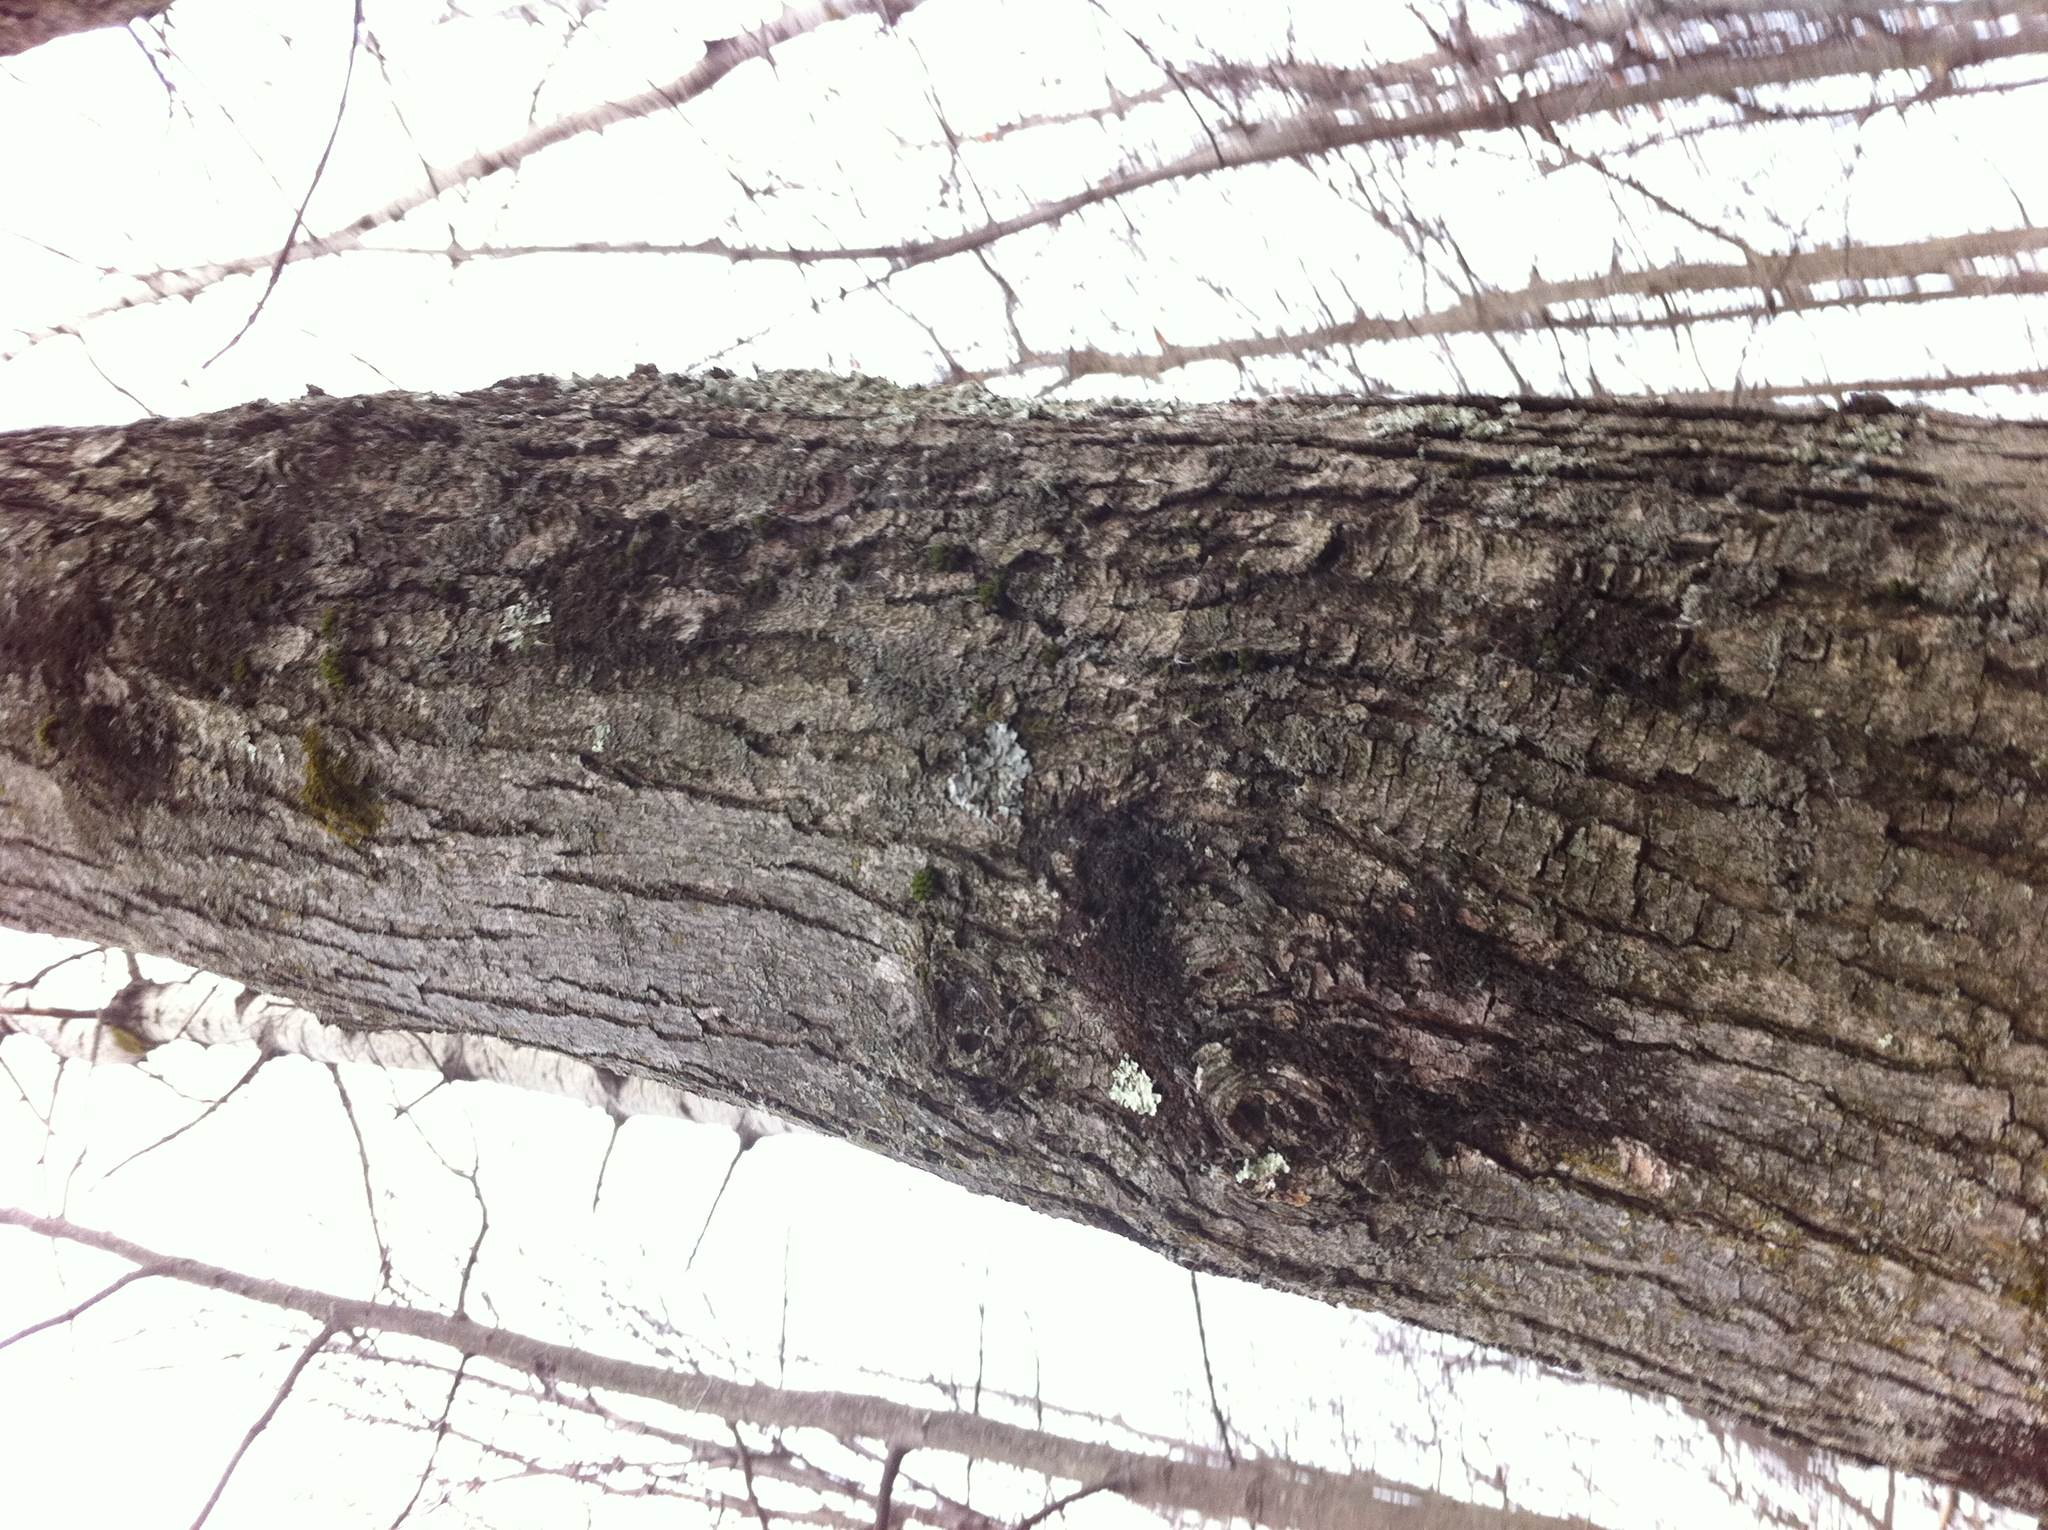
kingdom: Plantae
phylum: Tracheophyta
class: Magnoliopsida
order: Sapindales
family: Sapindaceae
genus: Acer
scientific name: Acer rubrum
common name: Red maple
